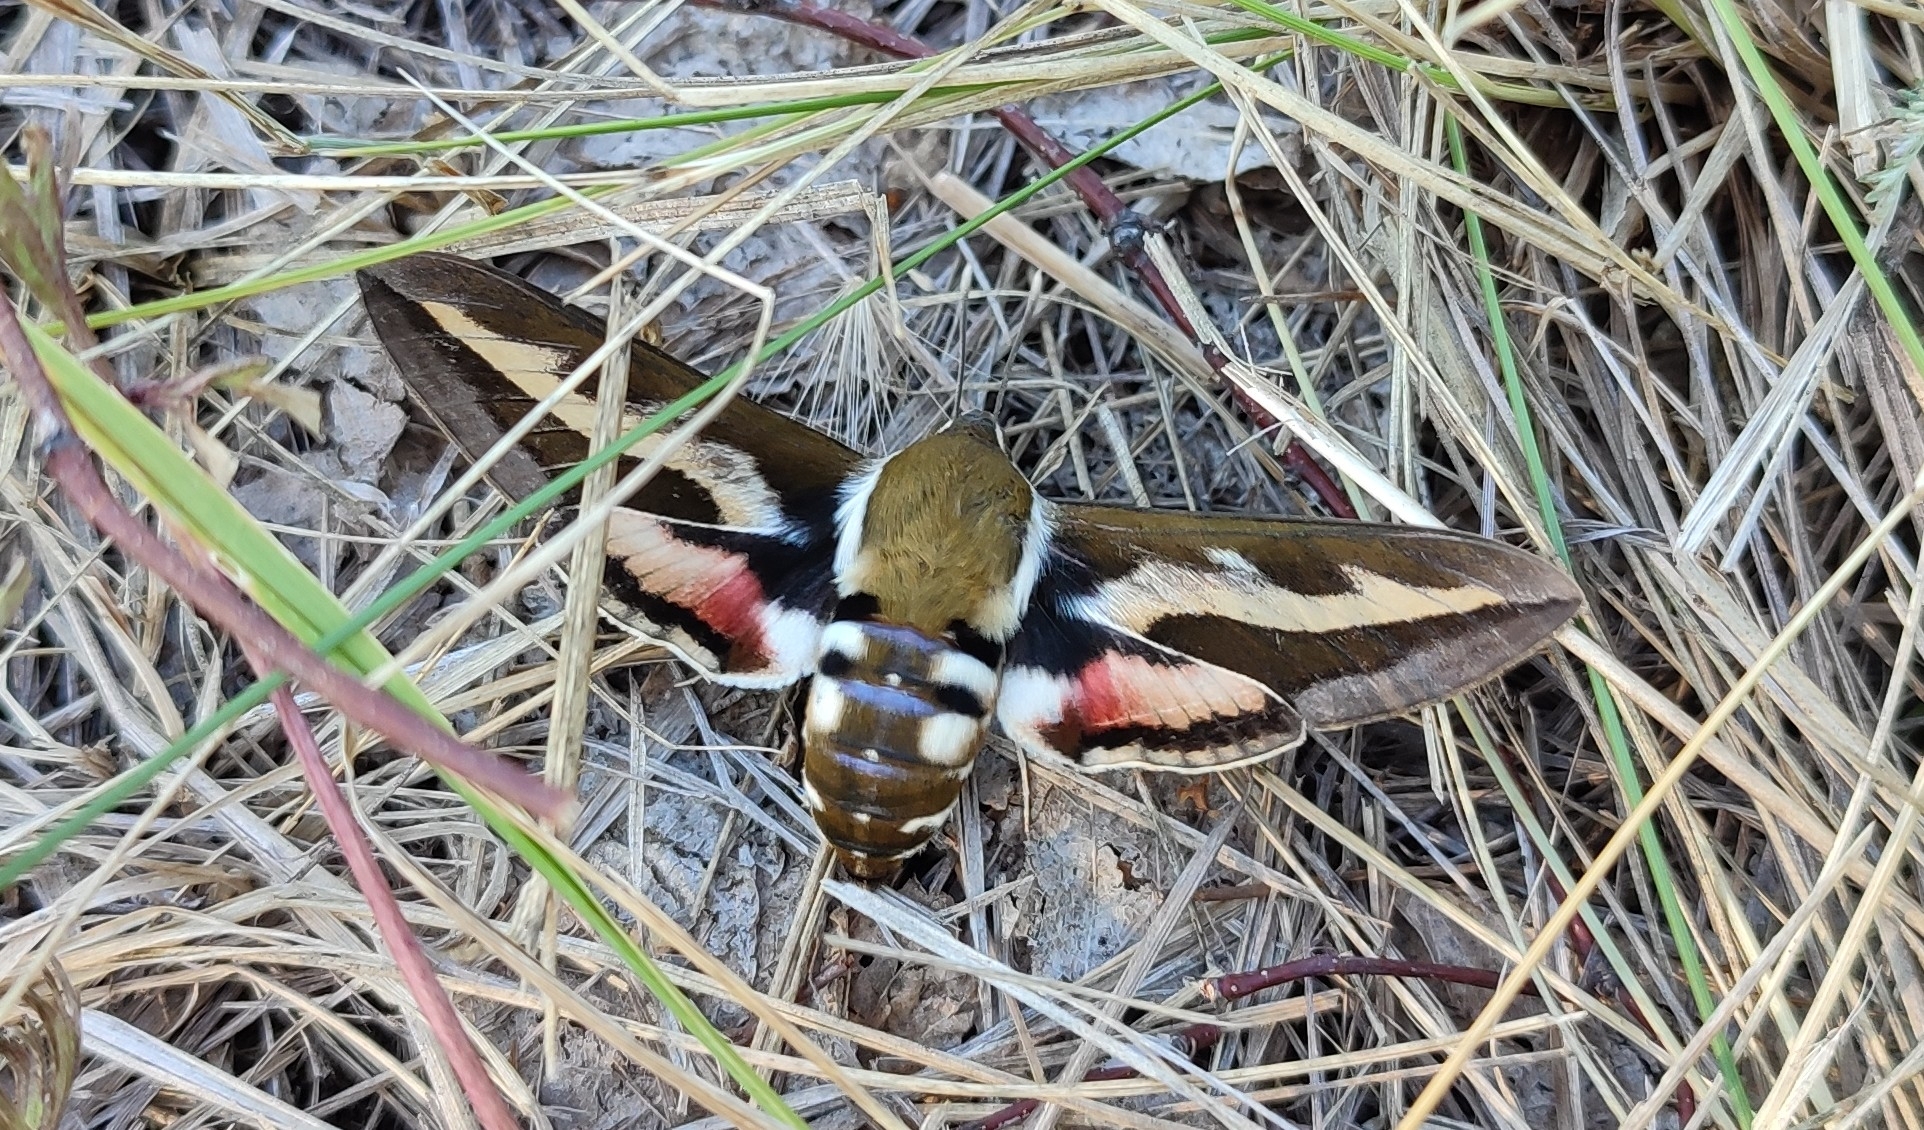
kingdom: Animalia
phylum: Arthropoda
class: Insecta
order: Lepidoptera
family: Sphingidae
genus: Hyles
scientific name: Hyles gallii
